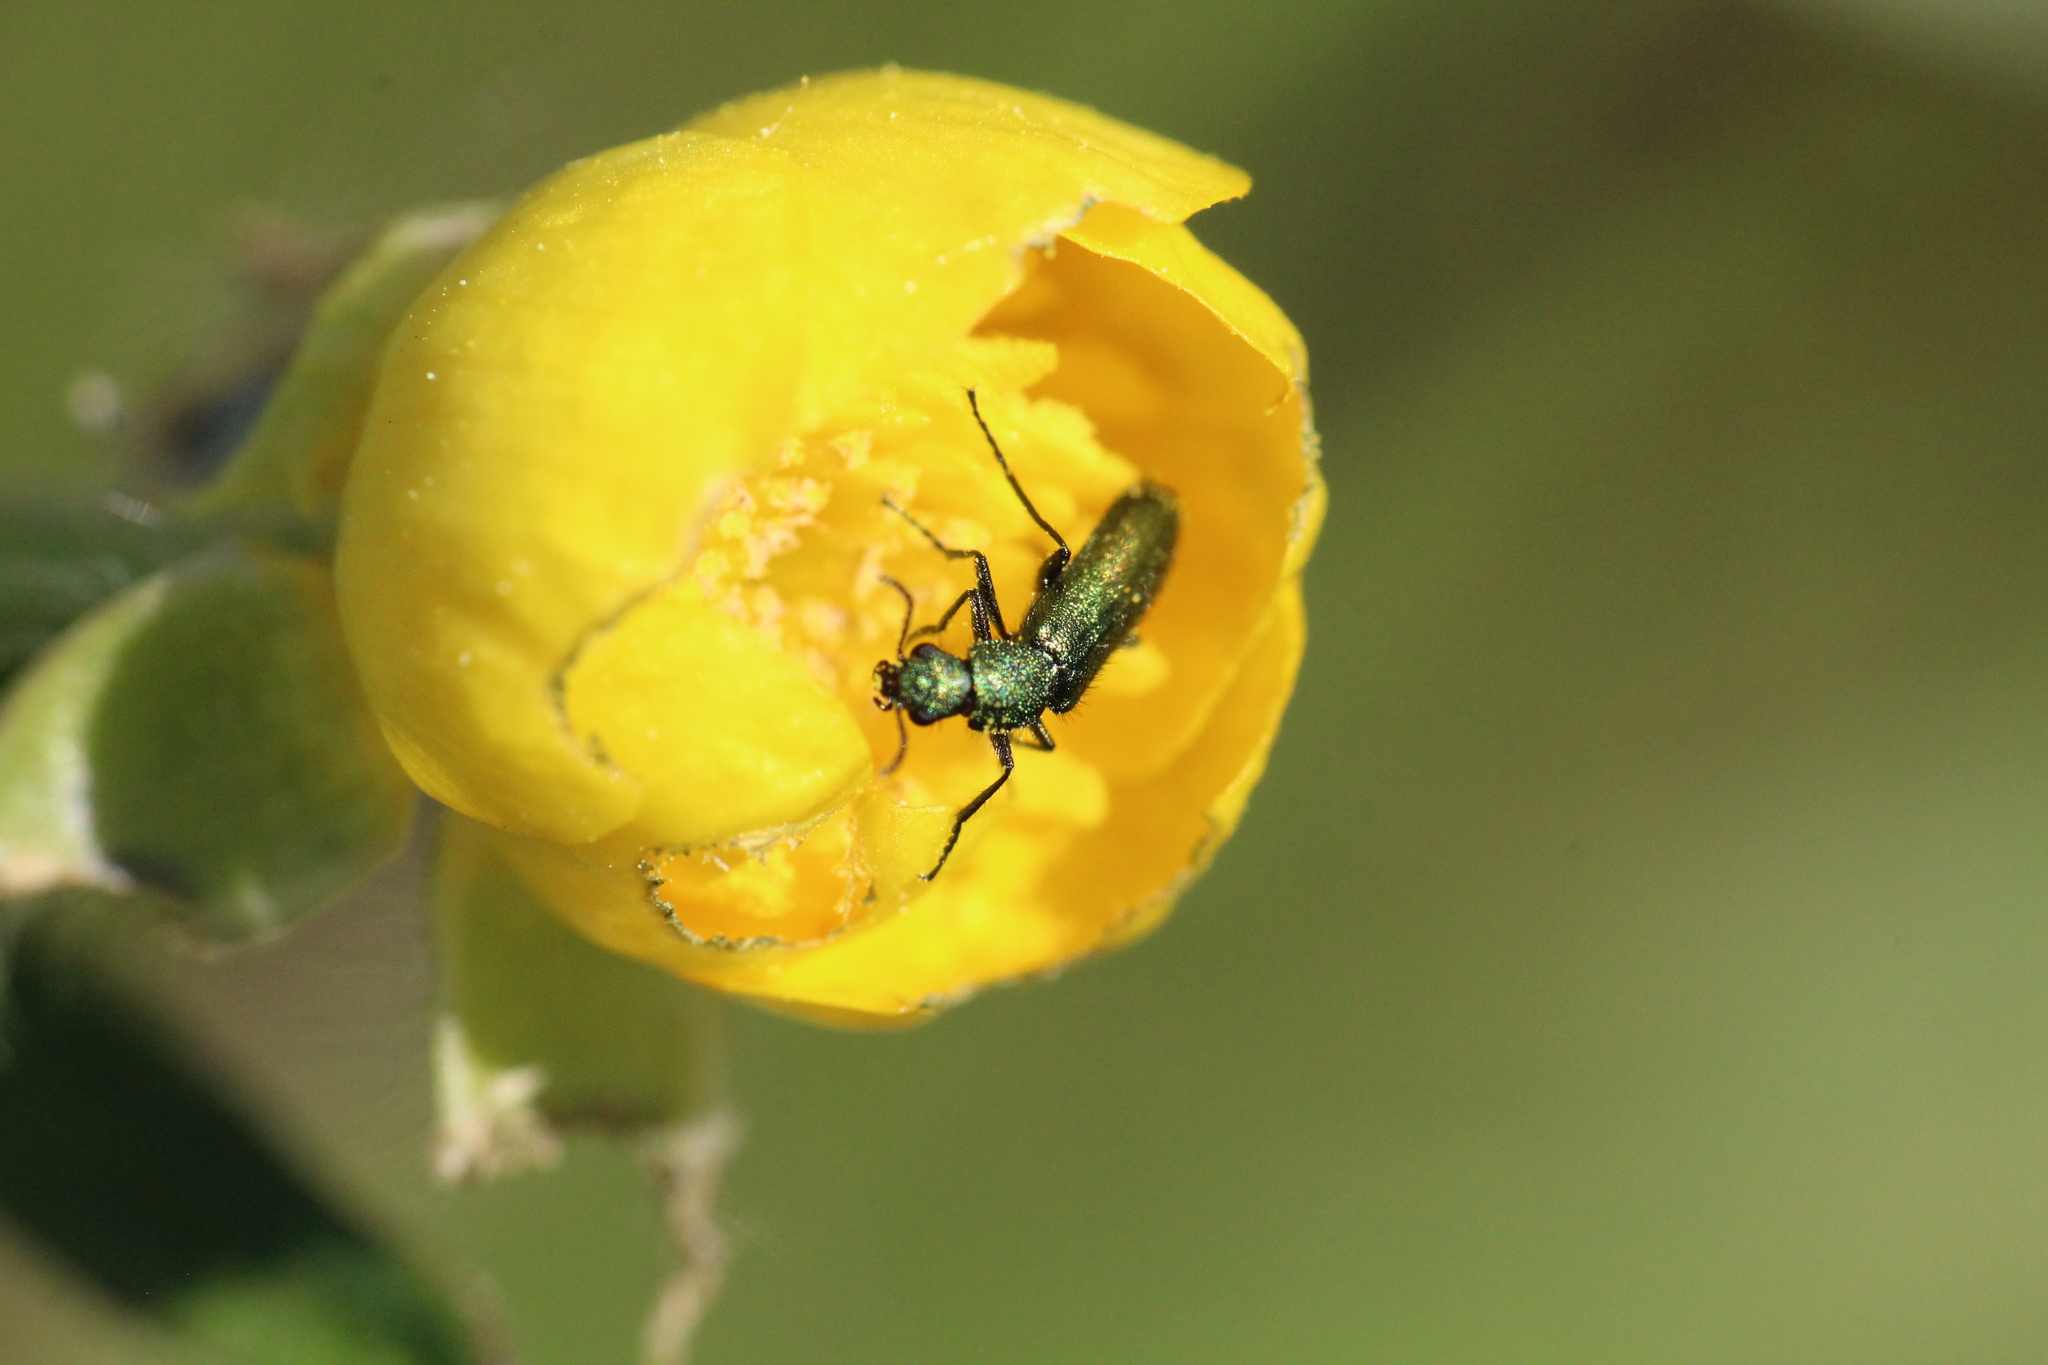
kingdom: Animalia
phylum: Arthropoda
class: Insecta
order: Coleoptera
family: Dasytidae
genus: Psilothrix
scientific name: Psilothrix viridicoerulea
